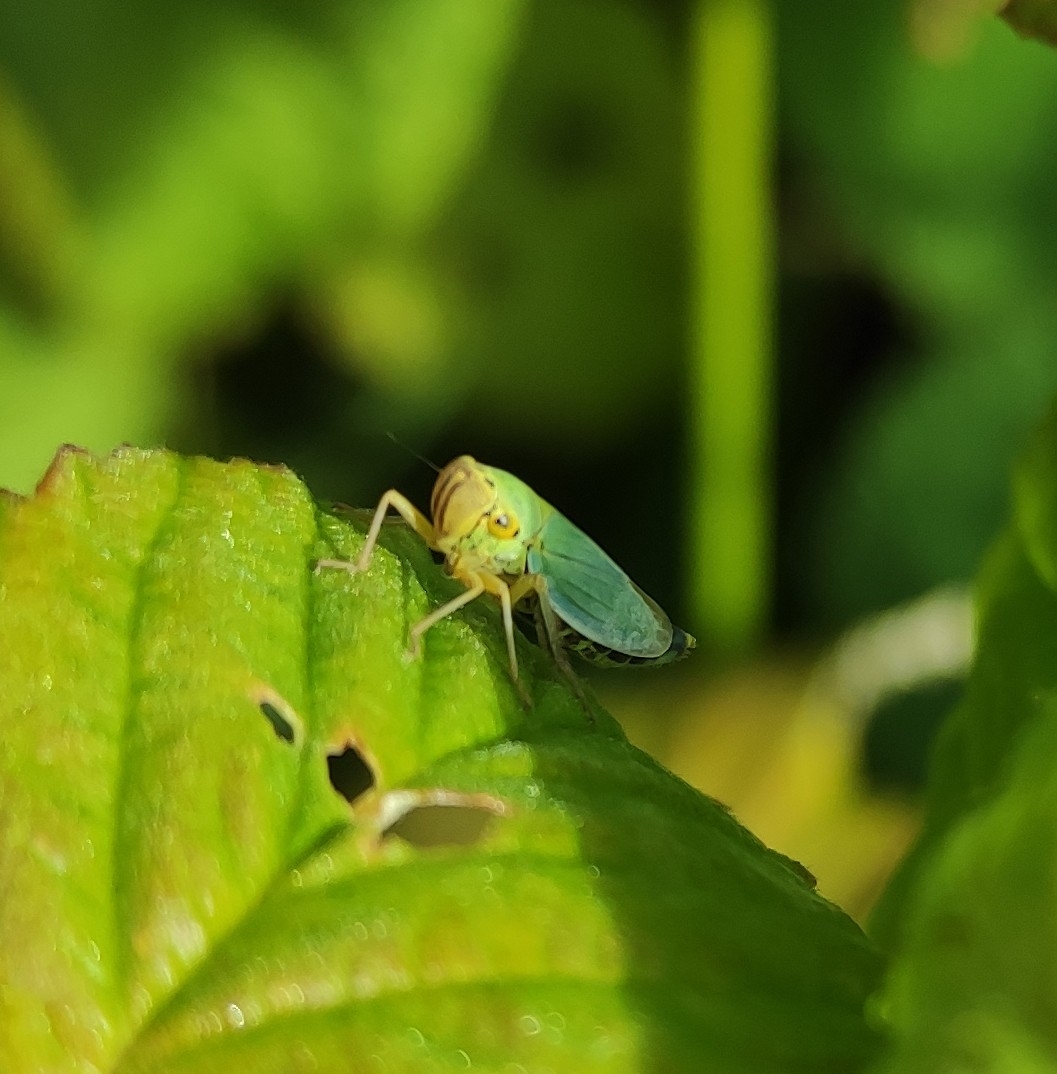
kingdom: Animalia
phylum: Arthropoda
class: Insecta
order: Hemiptera
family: Cicadellidae
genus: Cicadella
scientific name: Cicadella viridis
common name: Leafhopper
